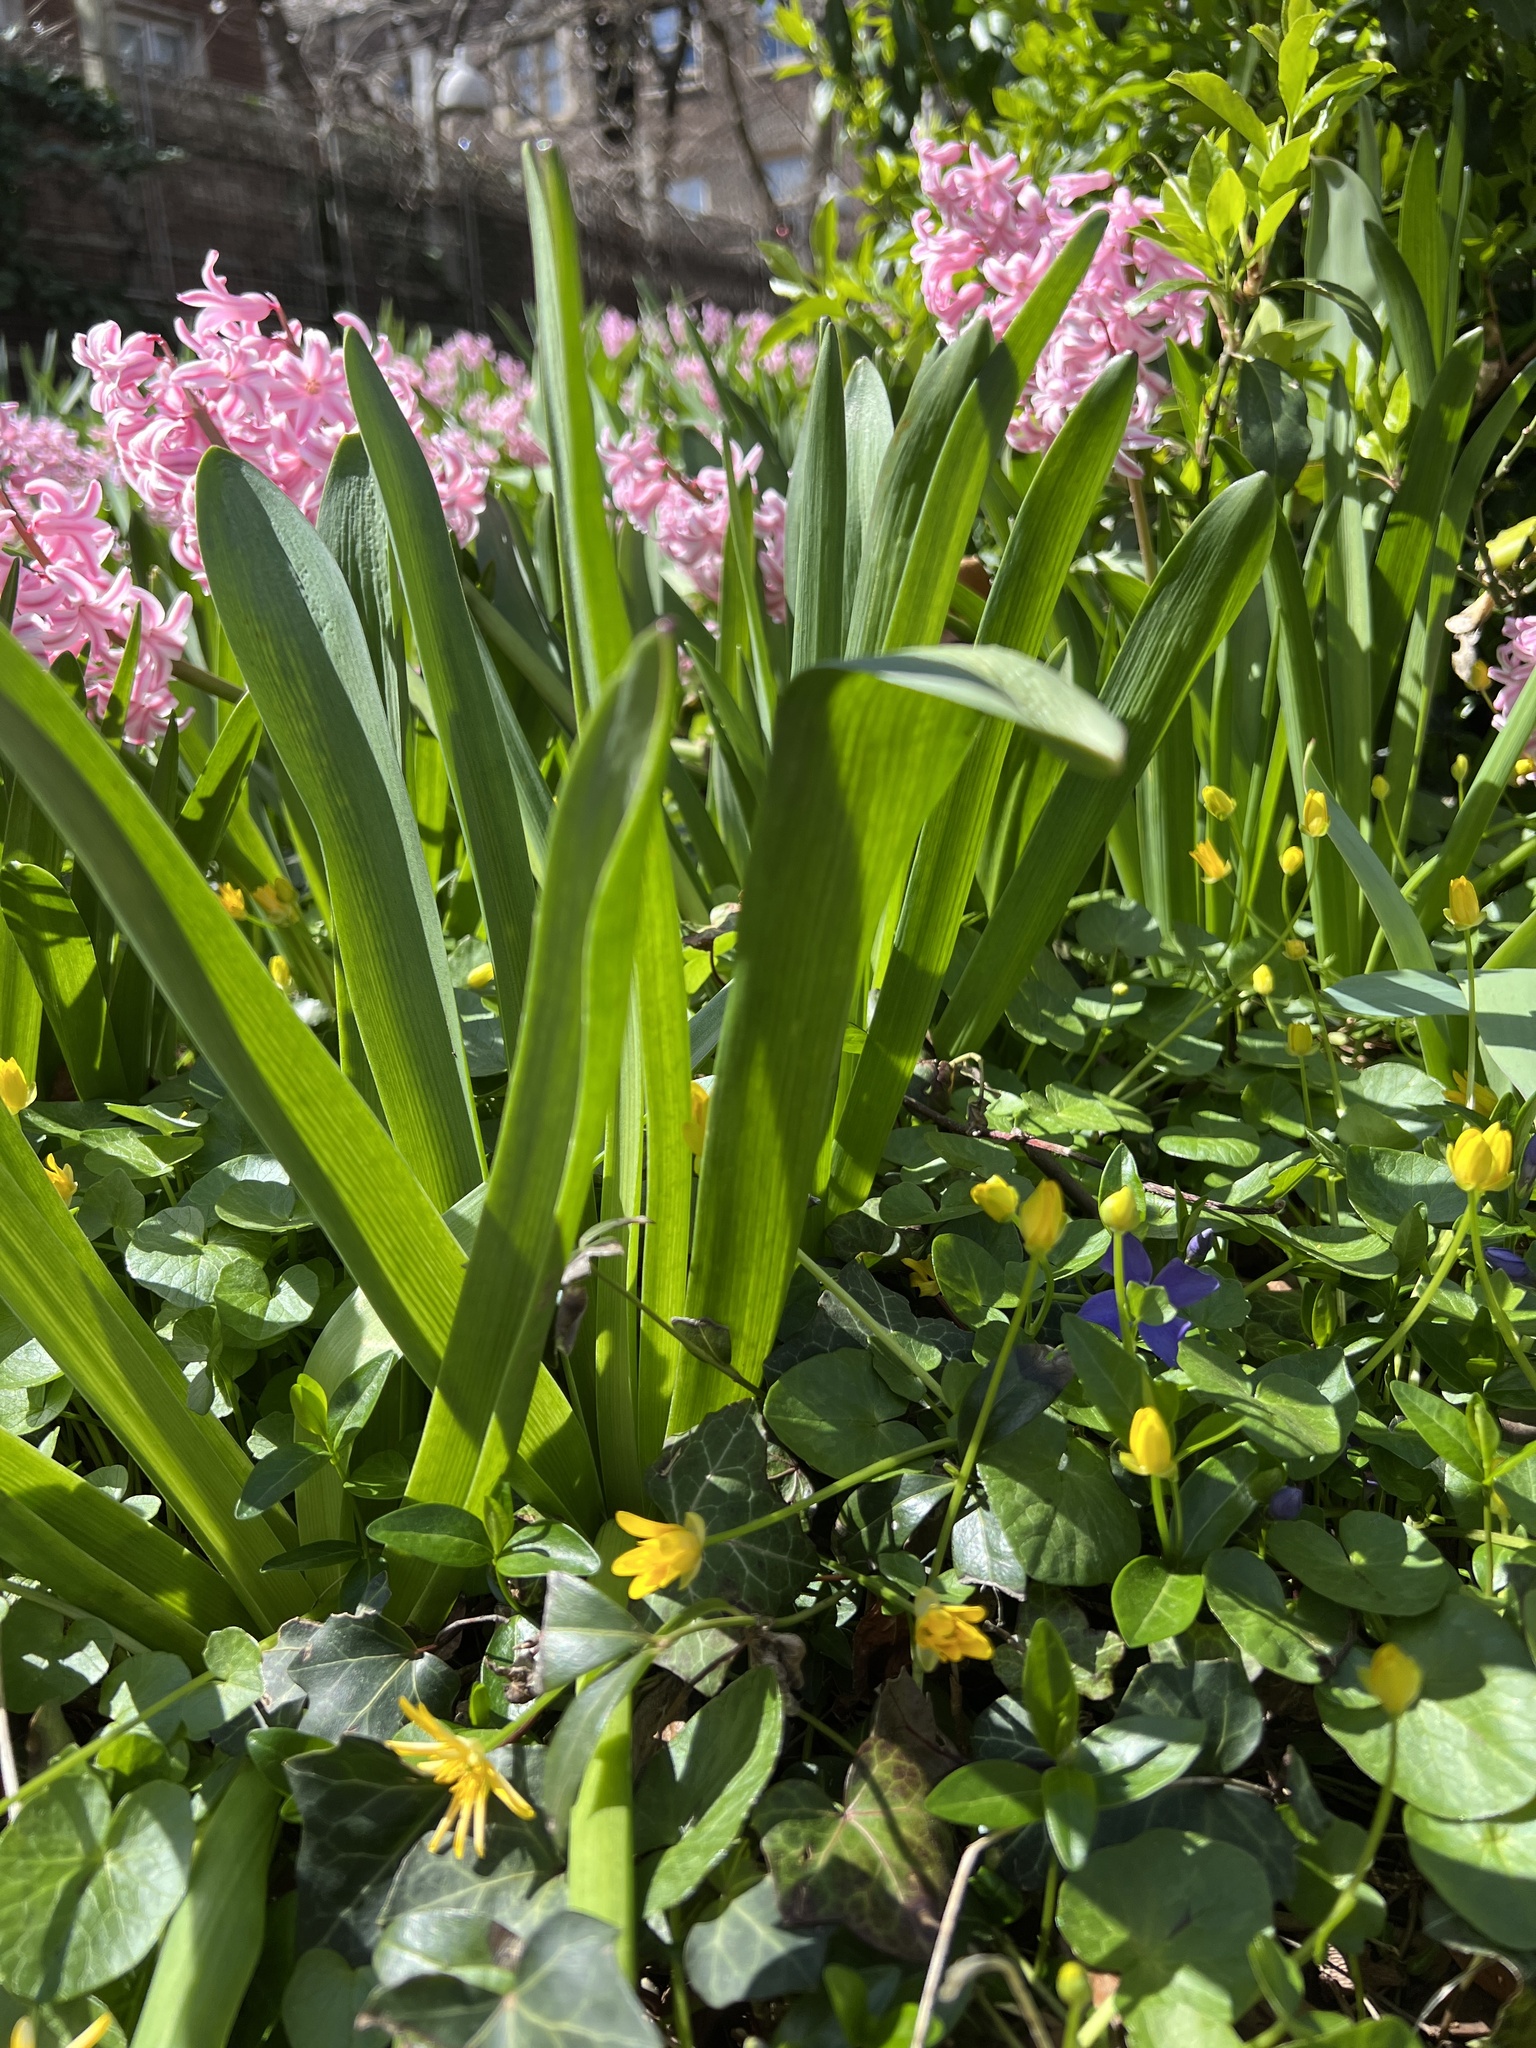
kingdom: Plantae
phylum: Tracheophyta
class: Magnoliopsida
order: Ranunculales
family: Ranunculaceae
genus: Ficaria
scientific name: Ficaria verna
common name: Lesser celandine
